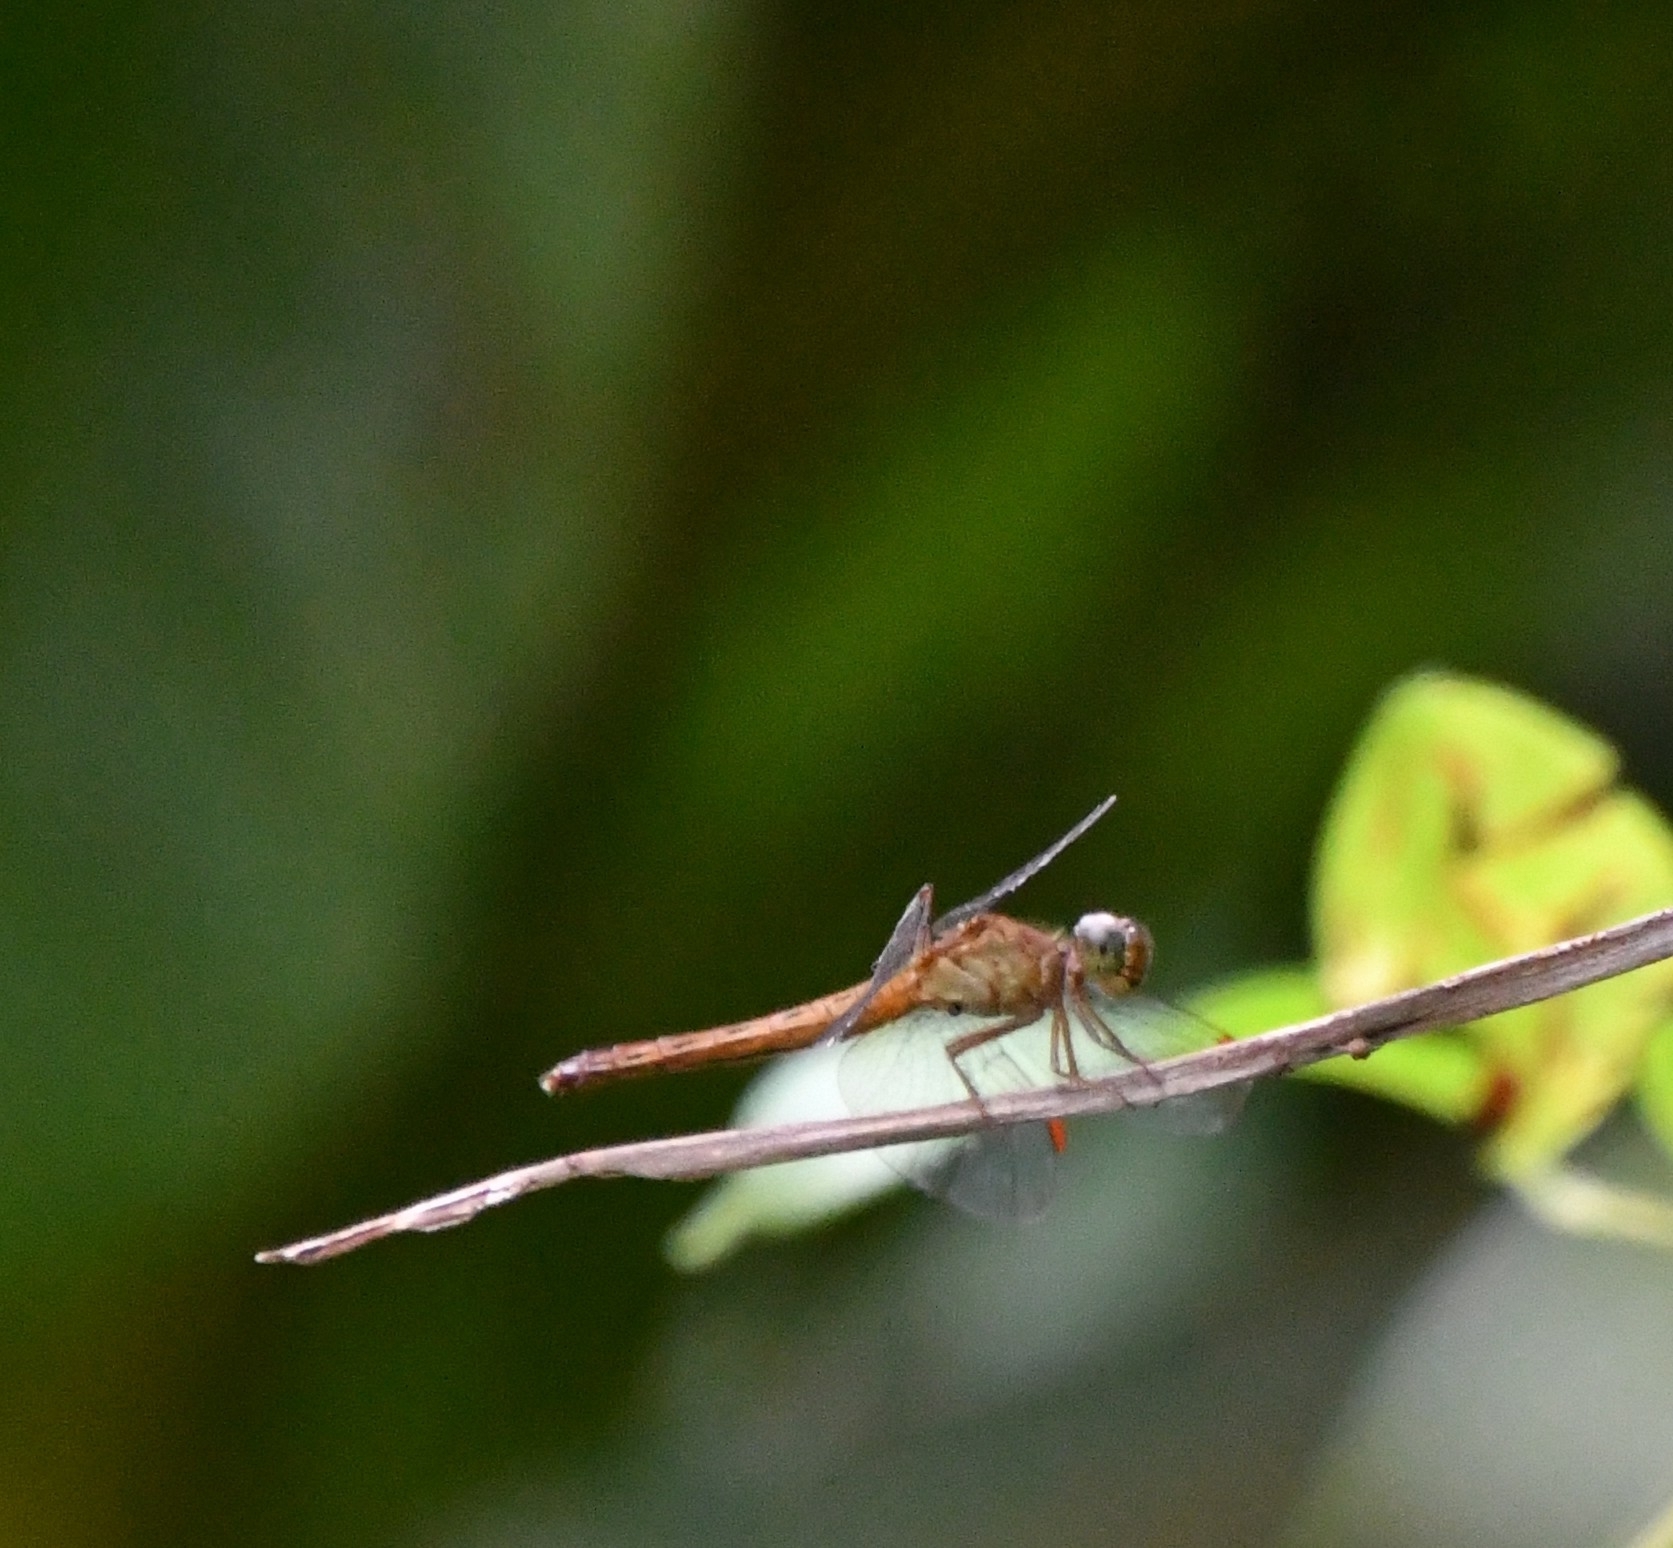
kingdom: Animalia
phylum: Arthropoda
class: Insecta
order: Odonata
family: Libellulidae
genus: Neurothemis
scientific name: Neurothemis fluctuans
